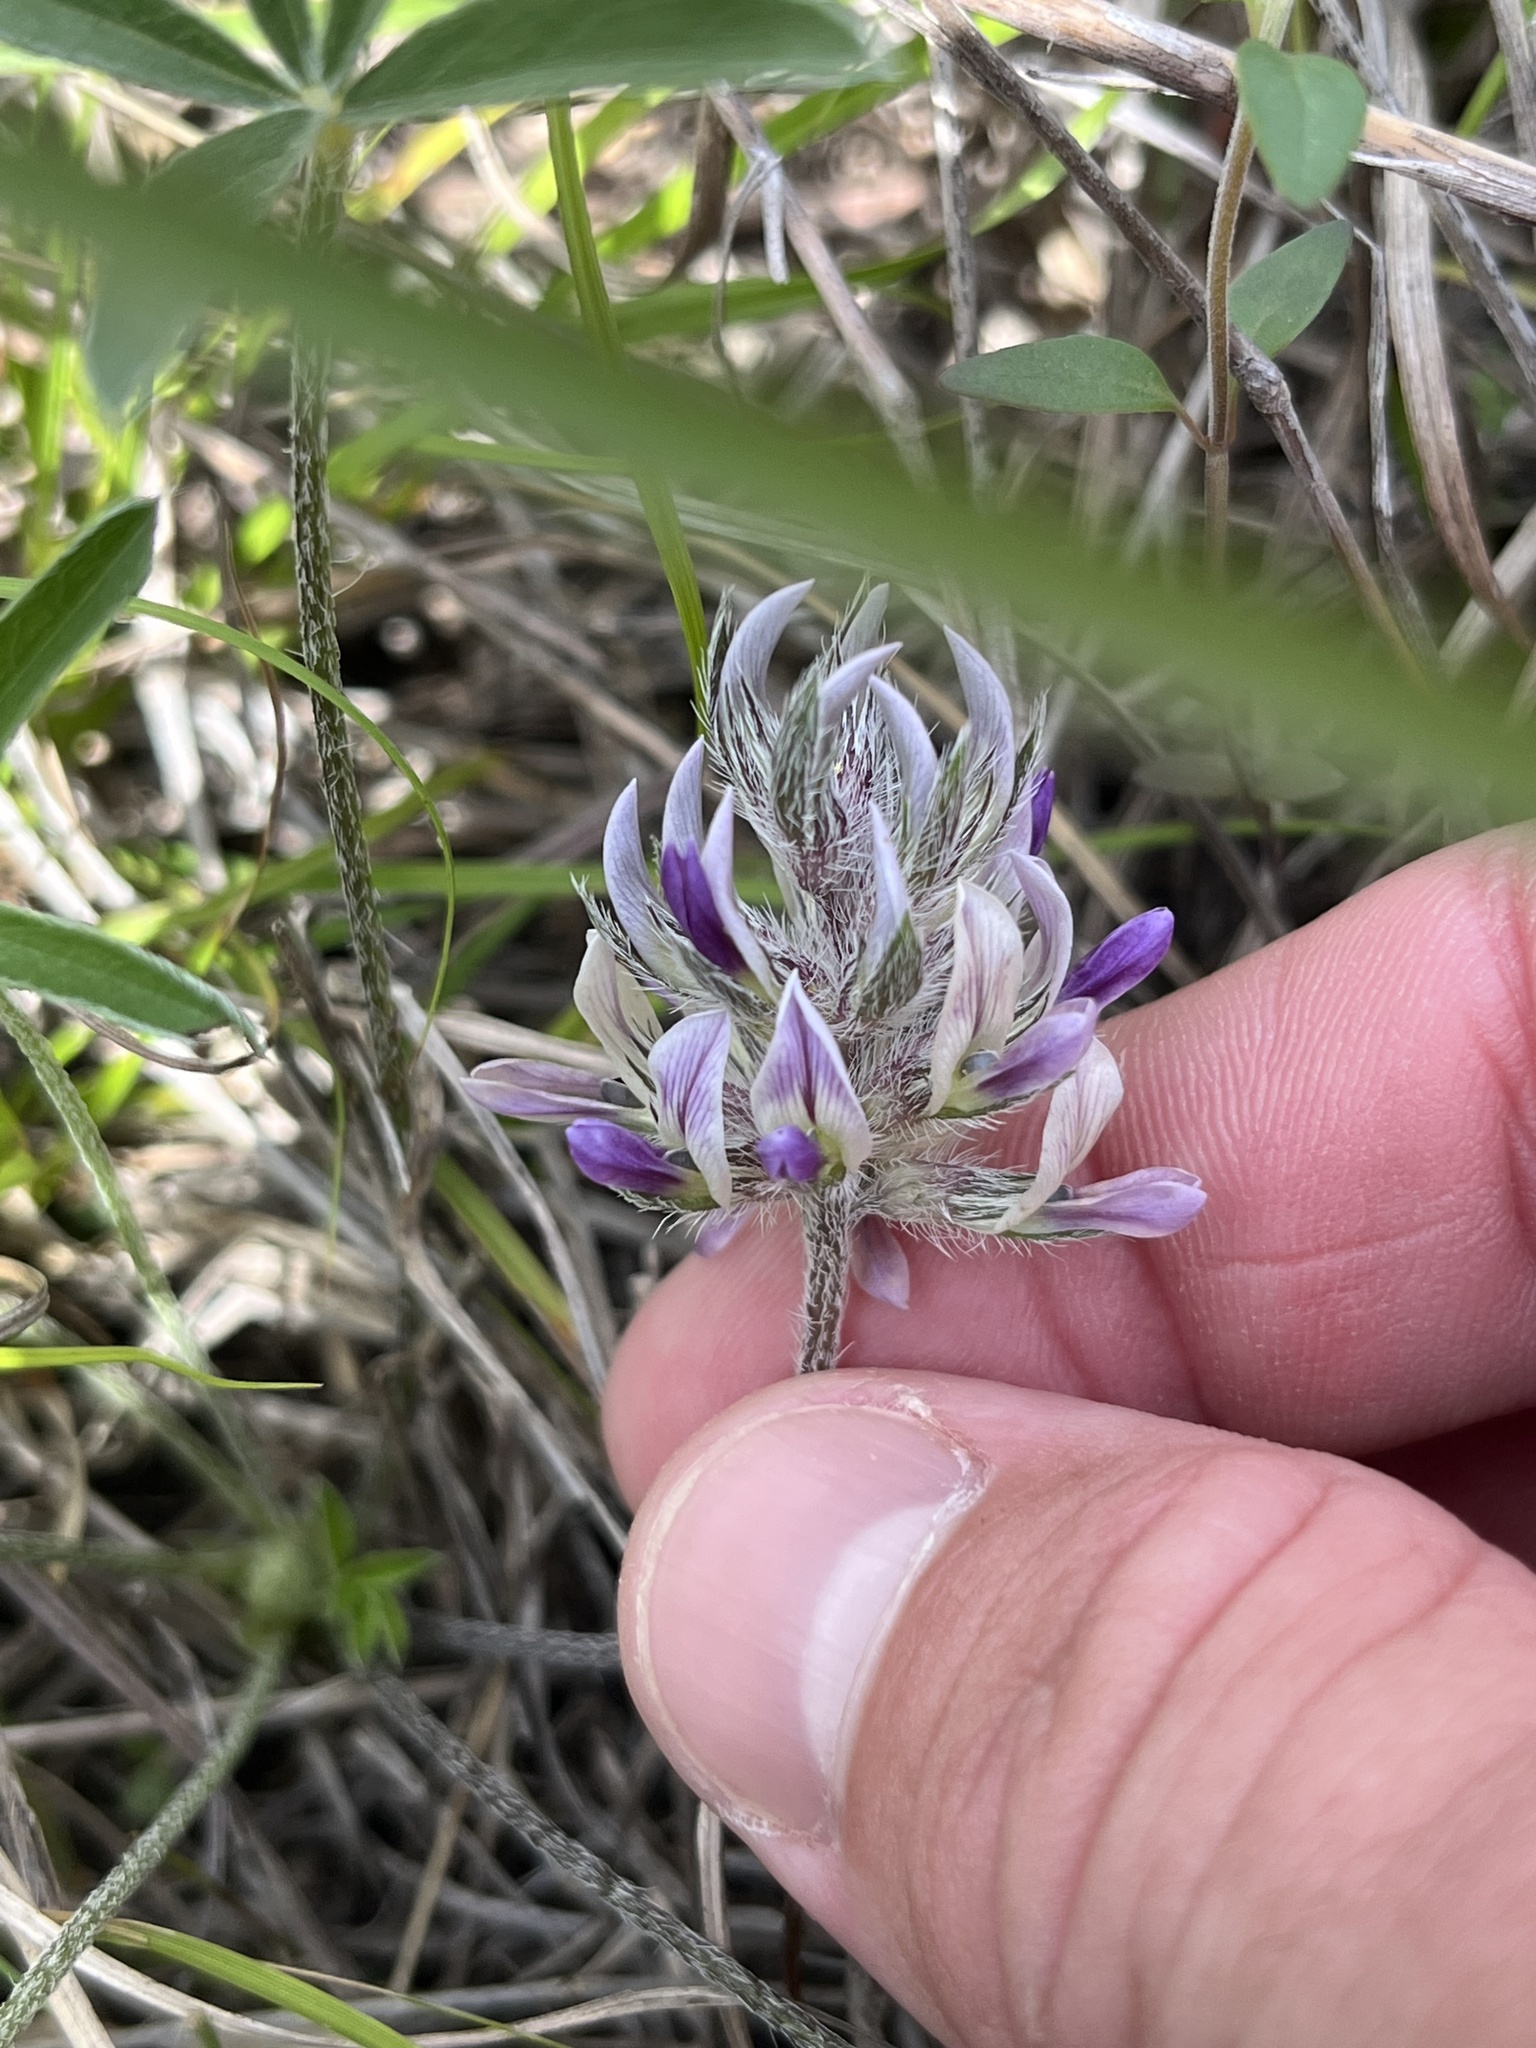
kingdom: Plantae
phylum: Tracheophyta
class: Magnoliopsida
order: Fabales
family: Fabaceae
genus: Pediomelum
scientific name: Pediomelum hypogaeum
